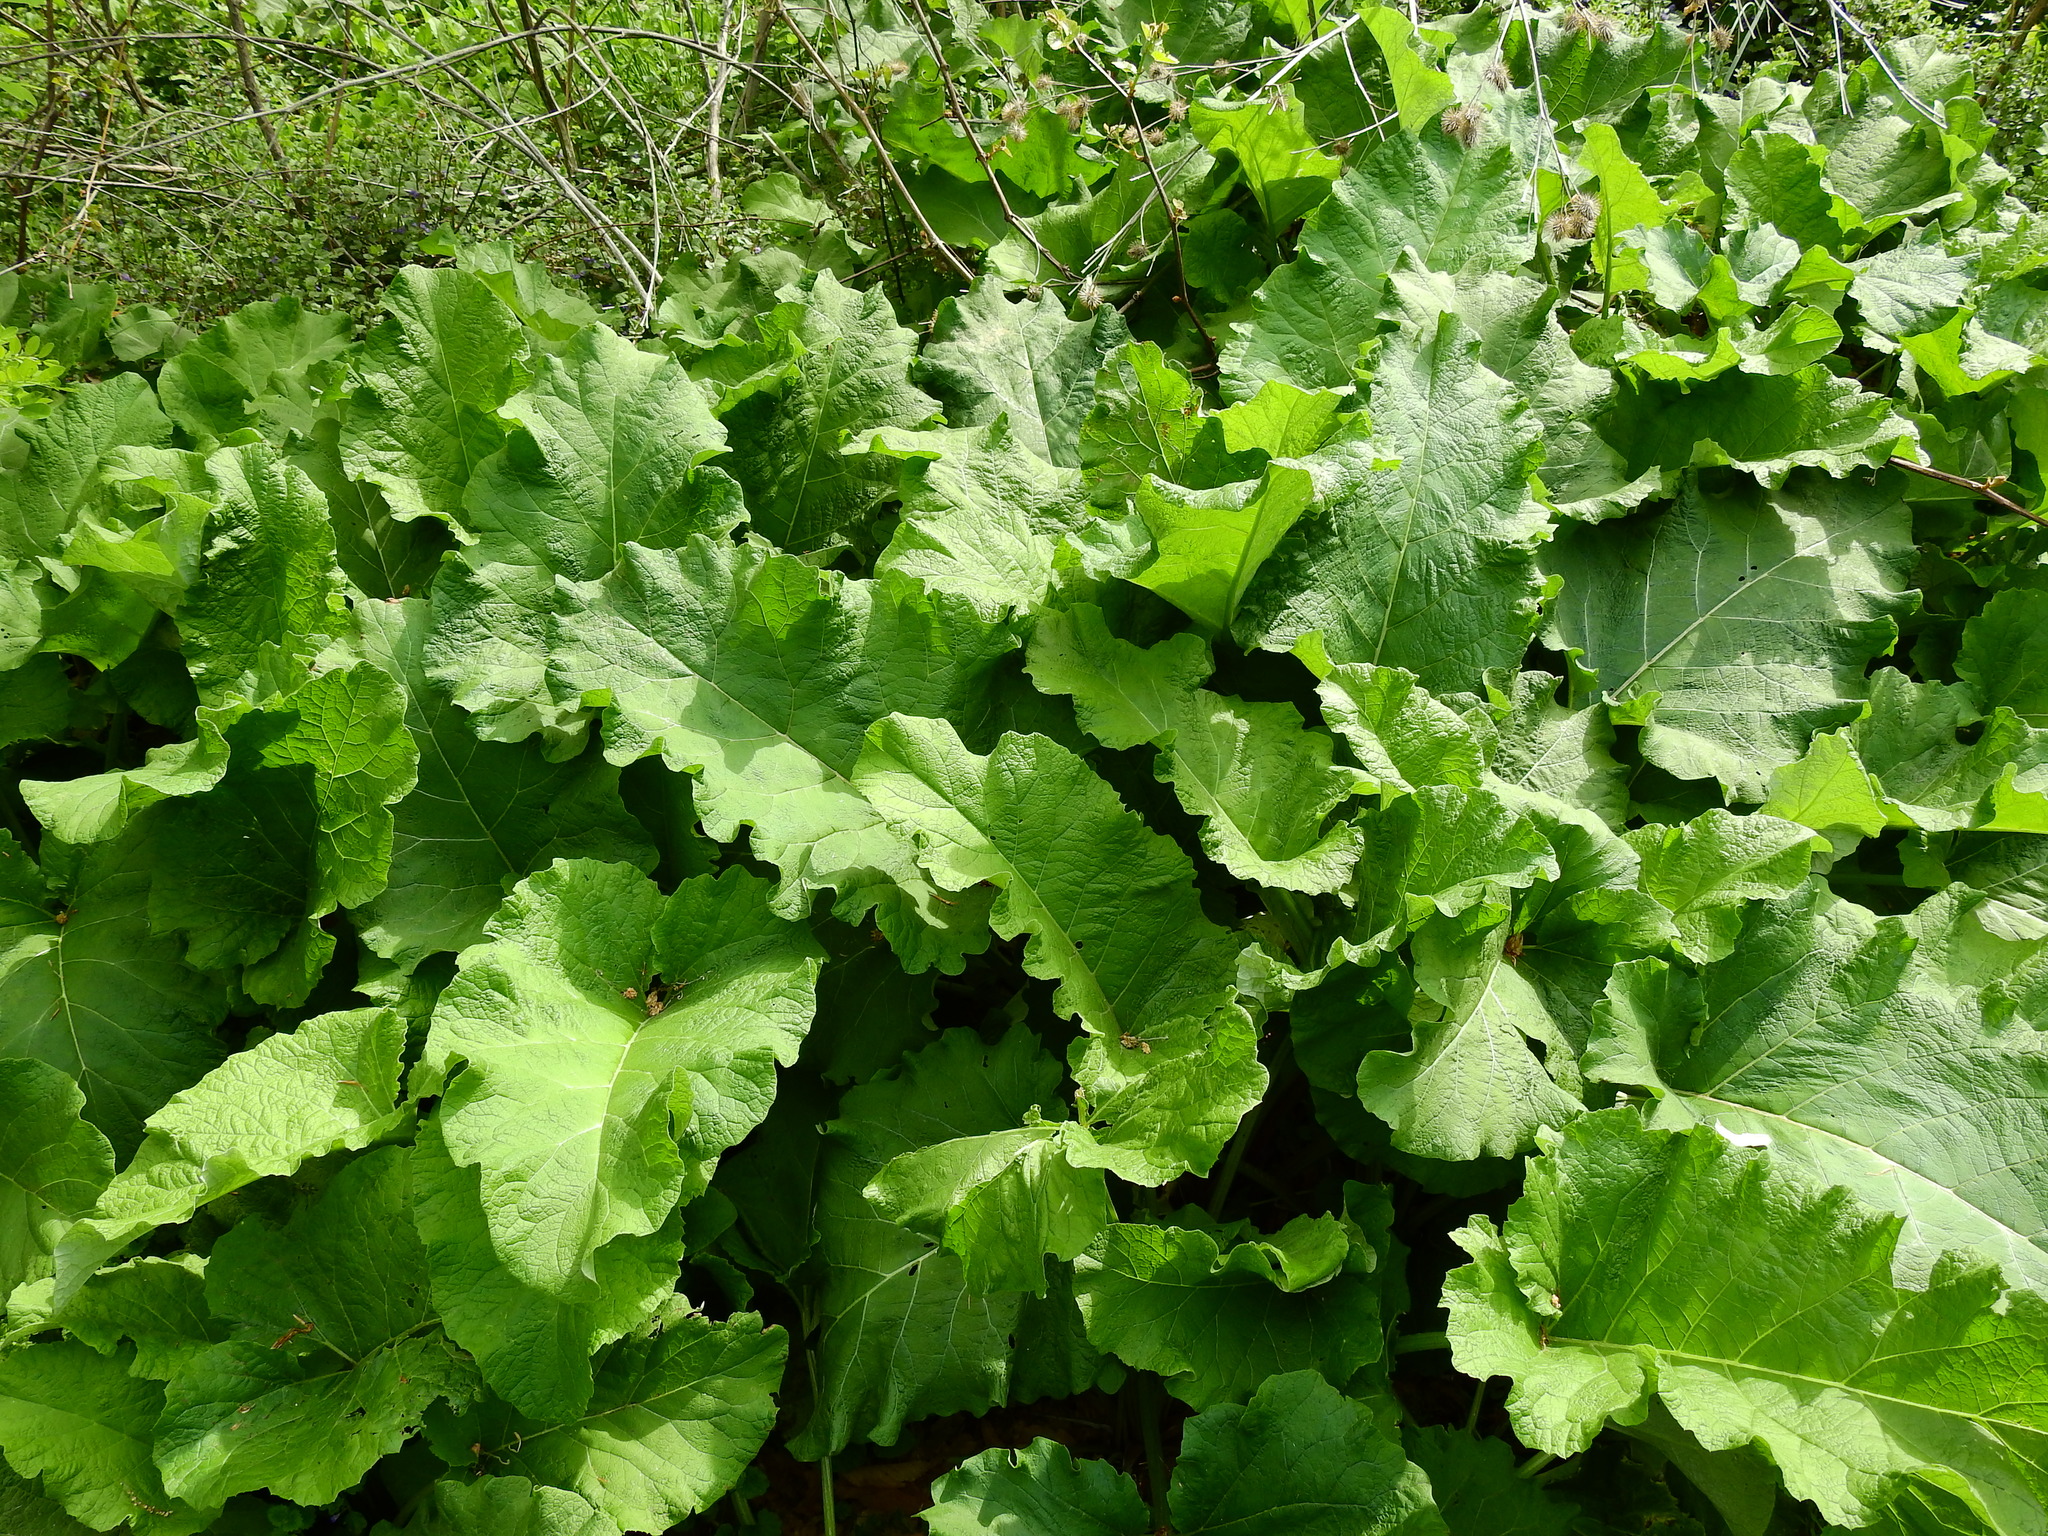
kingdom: Plantae
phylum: Tracheophyta
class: Magnoliopsida
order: Asterales
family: Asteraceae
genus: Arctium
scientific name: Arctium lappa
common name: Greater burdock
